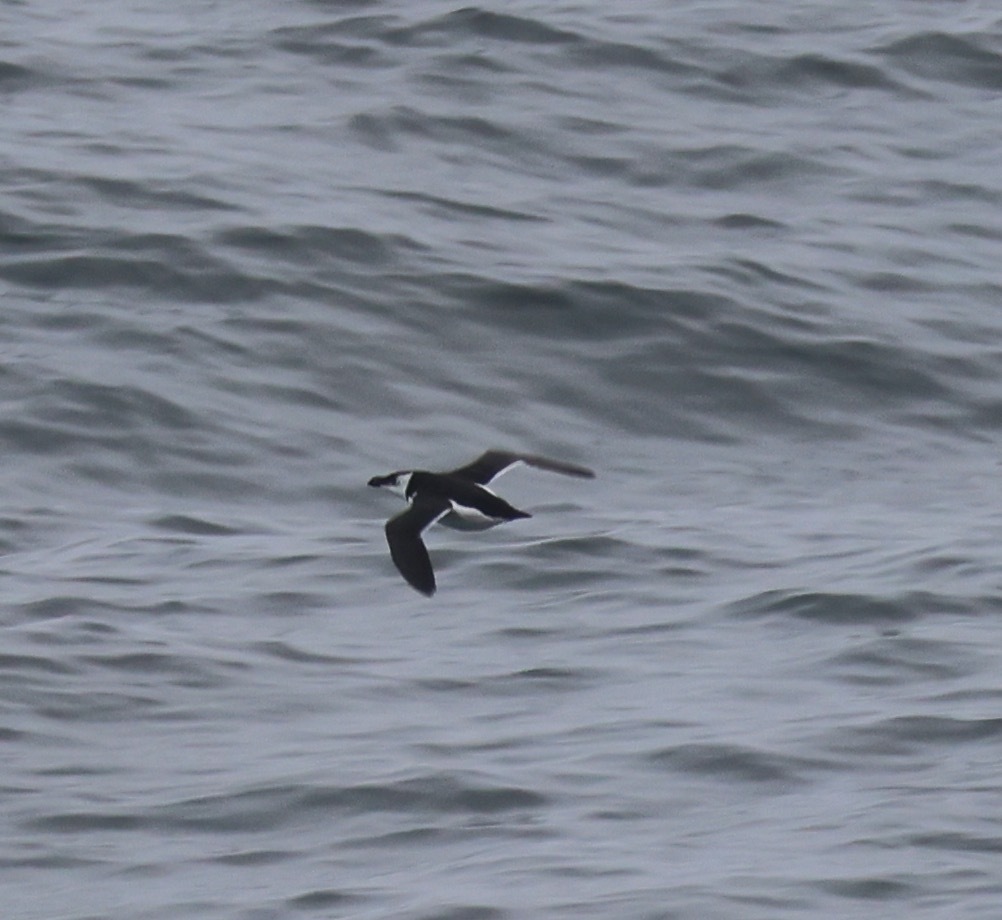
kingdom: Animalia
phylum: Chordata
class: Aves
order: Charadriiformes
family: Alcidae
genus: Alca
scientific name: Alca torda
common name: Razorbill
